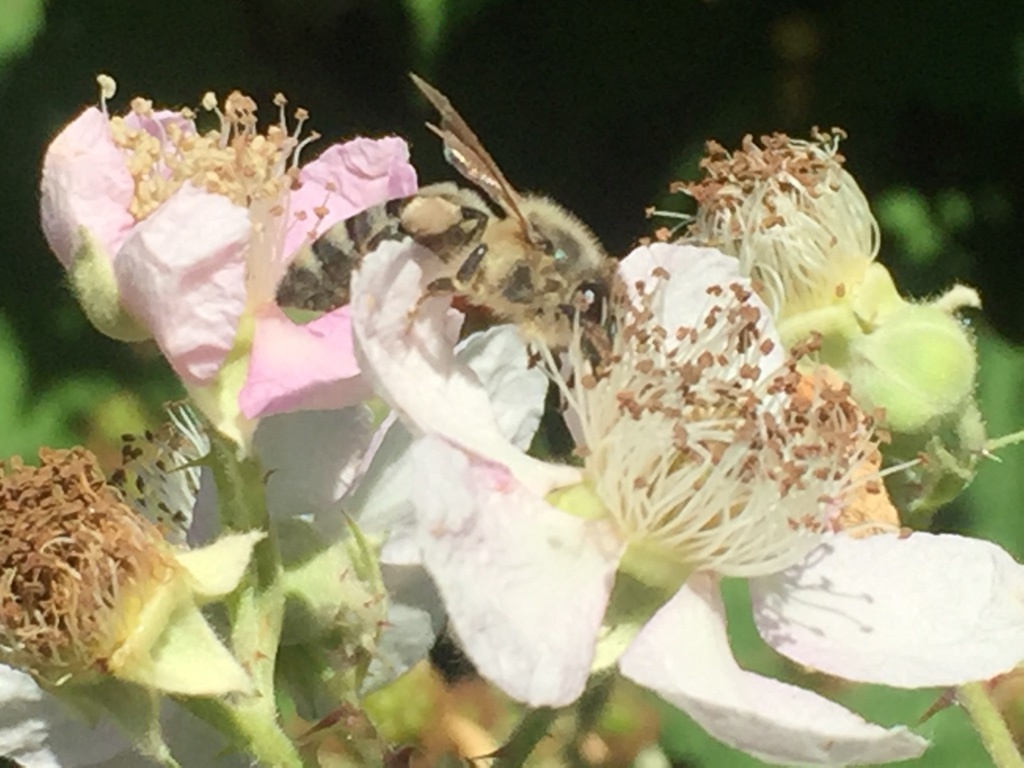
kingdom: Animalia
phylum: Arthropoda
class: Insecta
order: Hymenoptera
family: Apidae
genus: Apis
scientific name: Apis mellifera
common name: Honey bee
